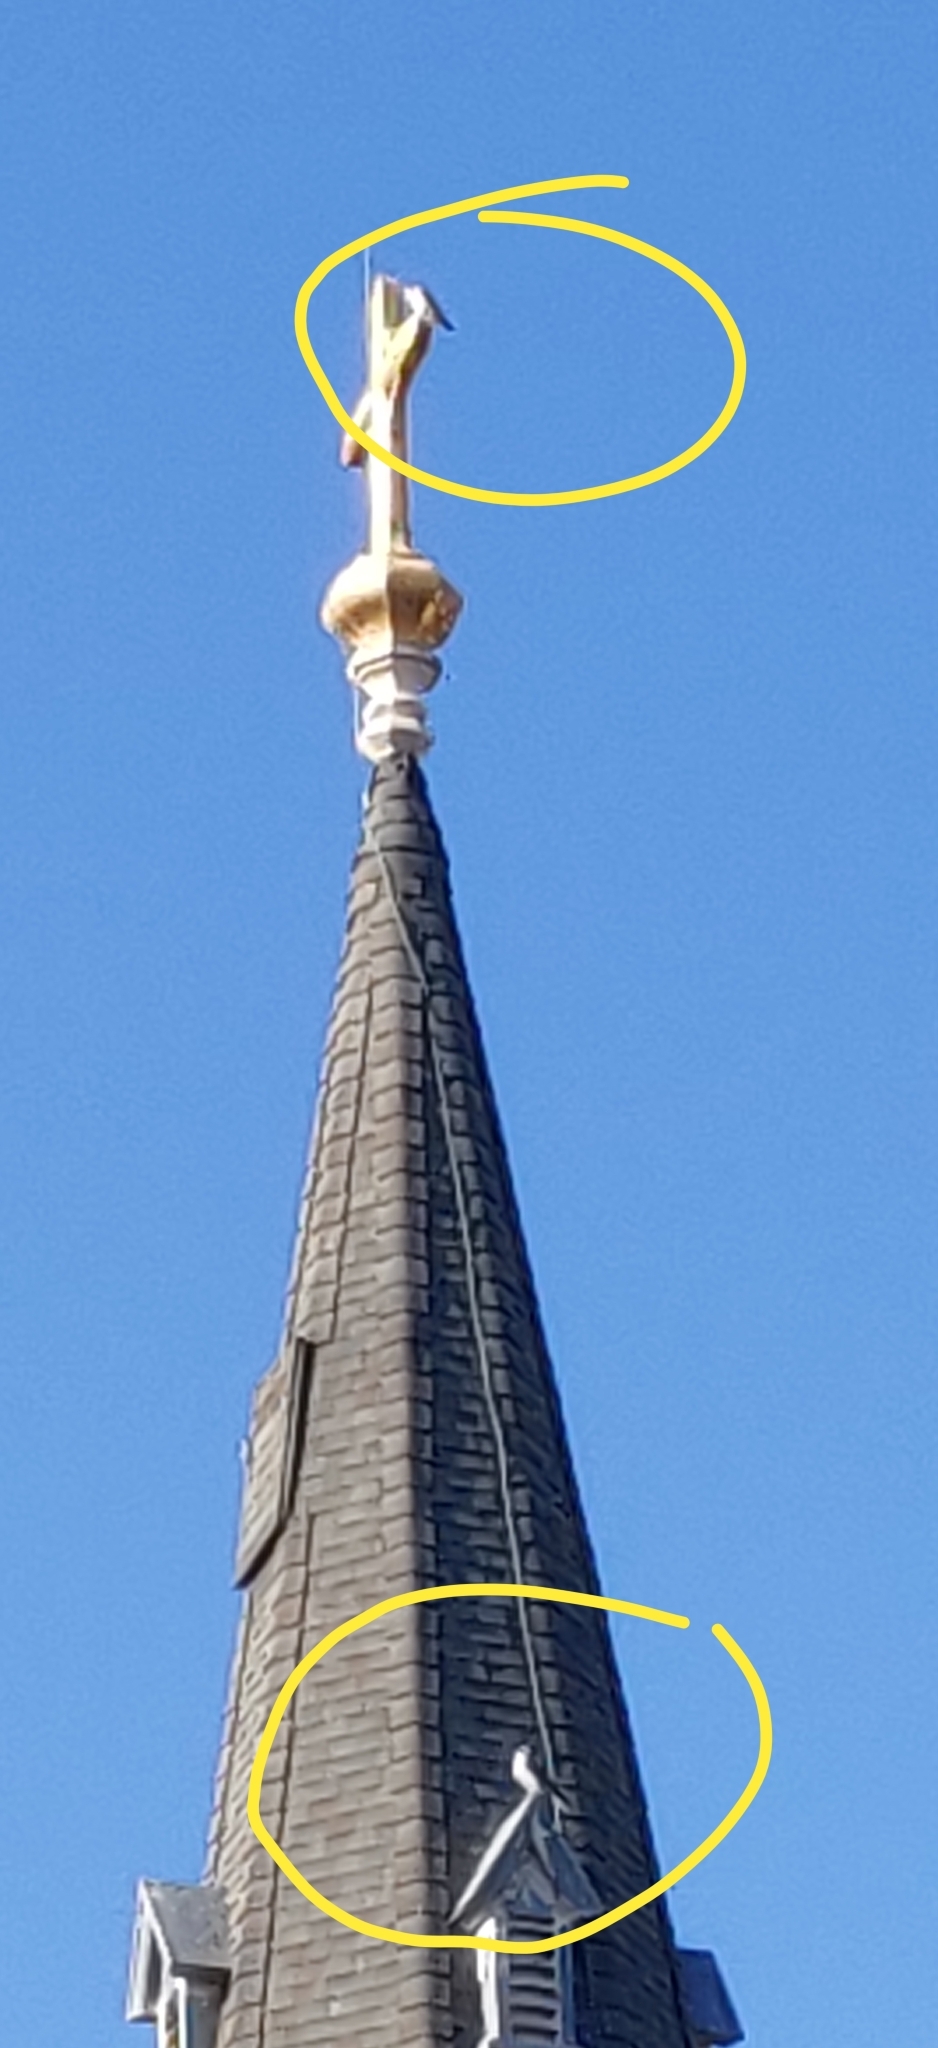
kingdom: Animalia
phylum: Chordata
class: Aves
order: Falconiformes
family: Falconidae
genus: Falco
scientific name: Falco peregrinus
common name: Peregrine falcon
